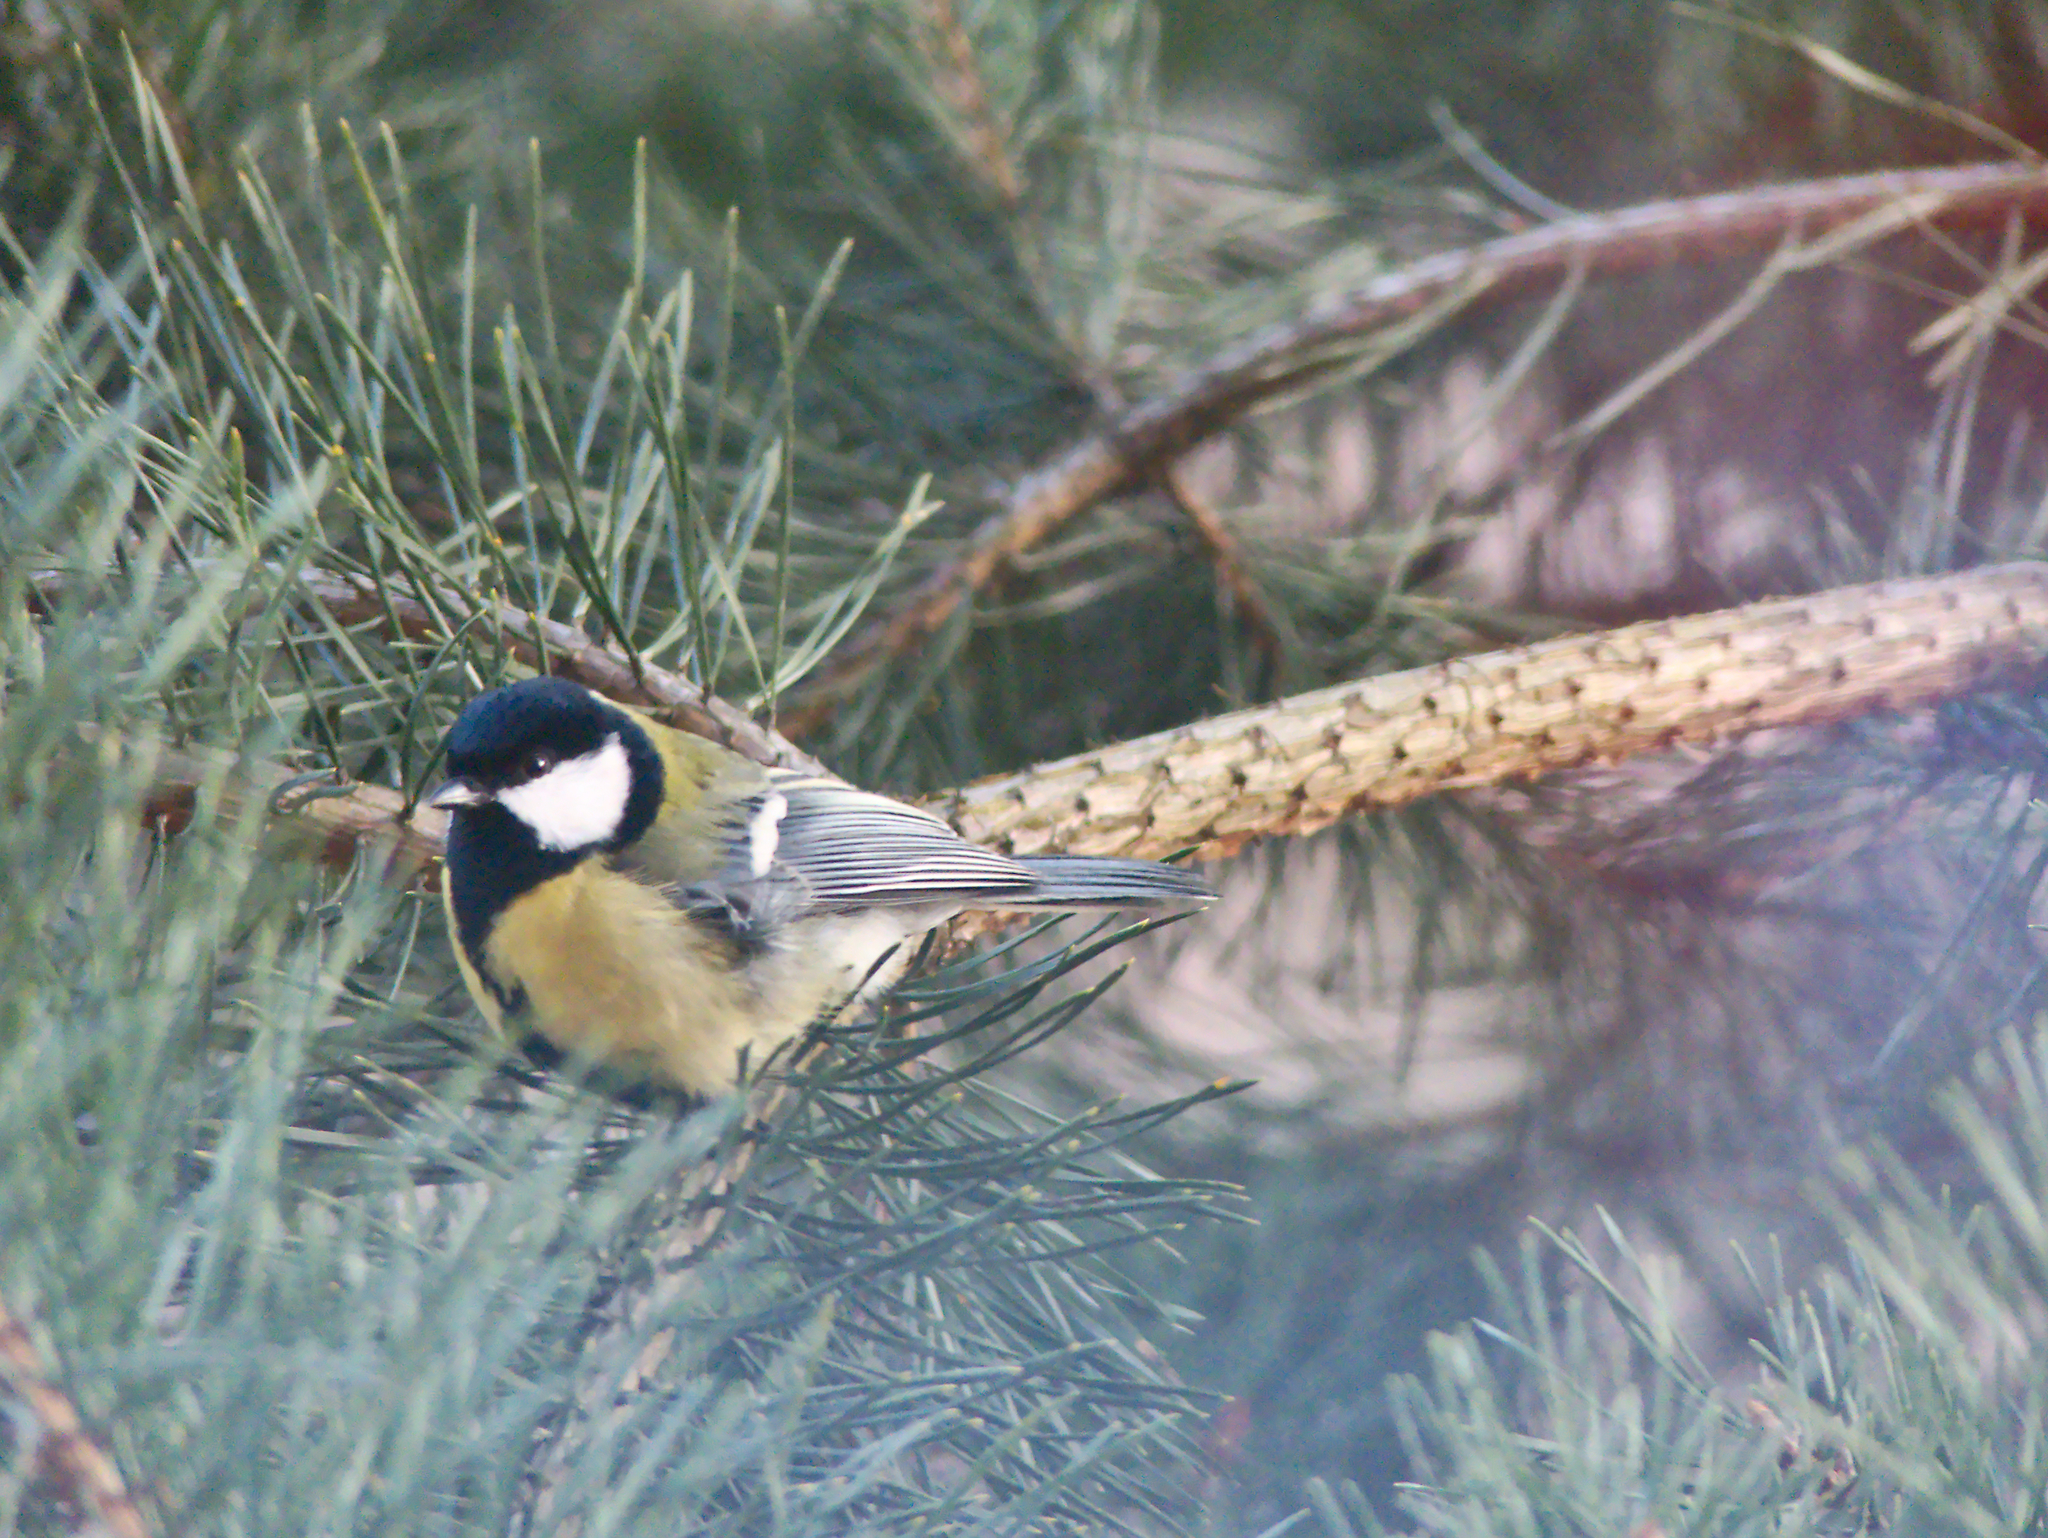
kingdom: Animalia
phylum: Chordata
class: Aves
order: Passeriformes
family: Paridae
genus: Parus
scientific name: Parus major
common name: Great tit
